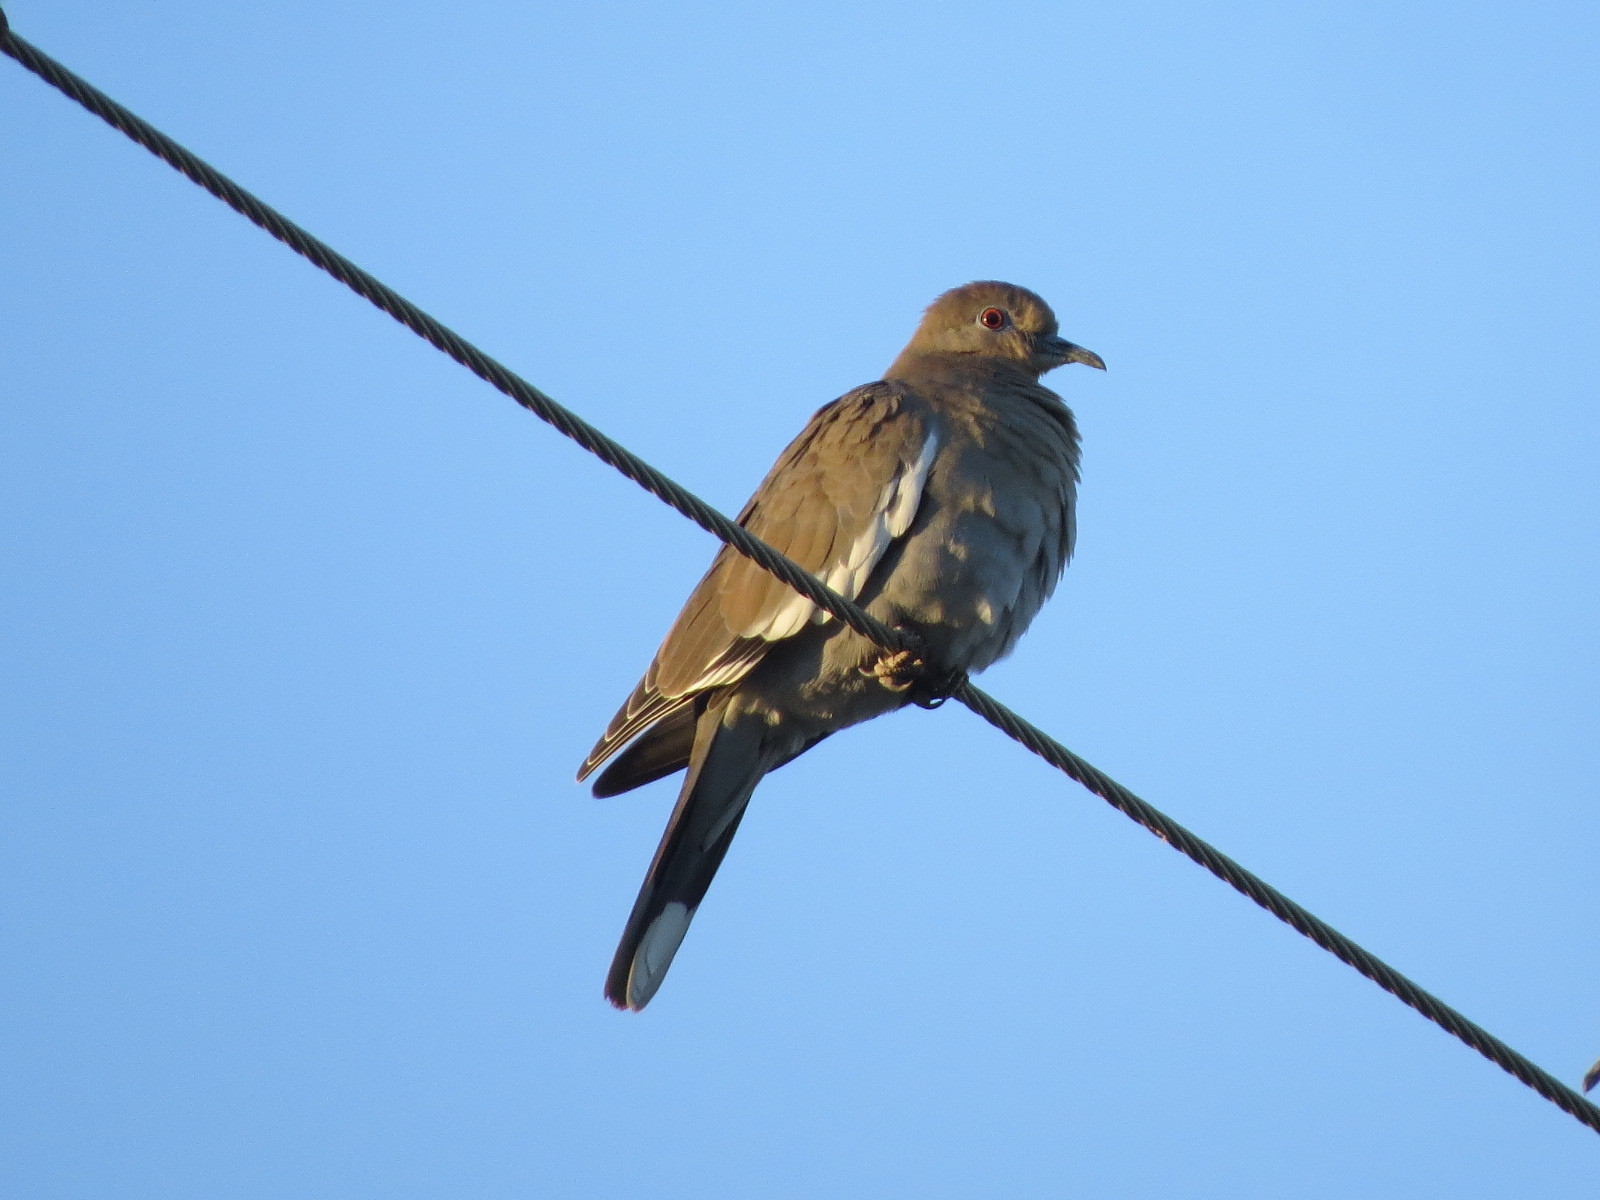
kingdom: Animalia
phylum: Chordata
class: Aves
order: Columbiformes
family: Columbidae
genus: Zenaida
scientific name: Zenaida asiatica
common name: White-winged dove
